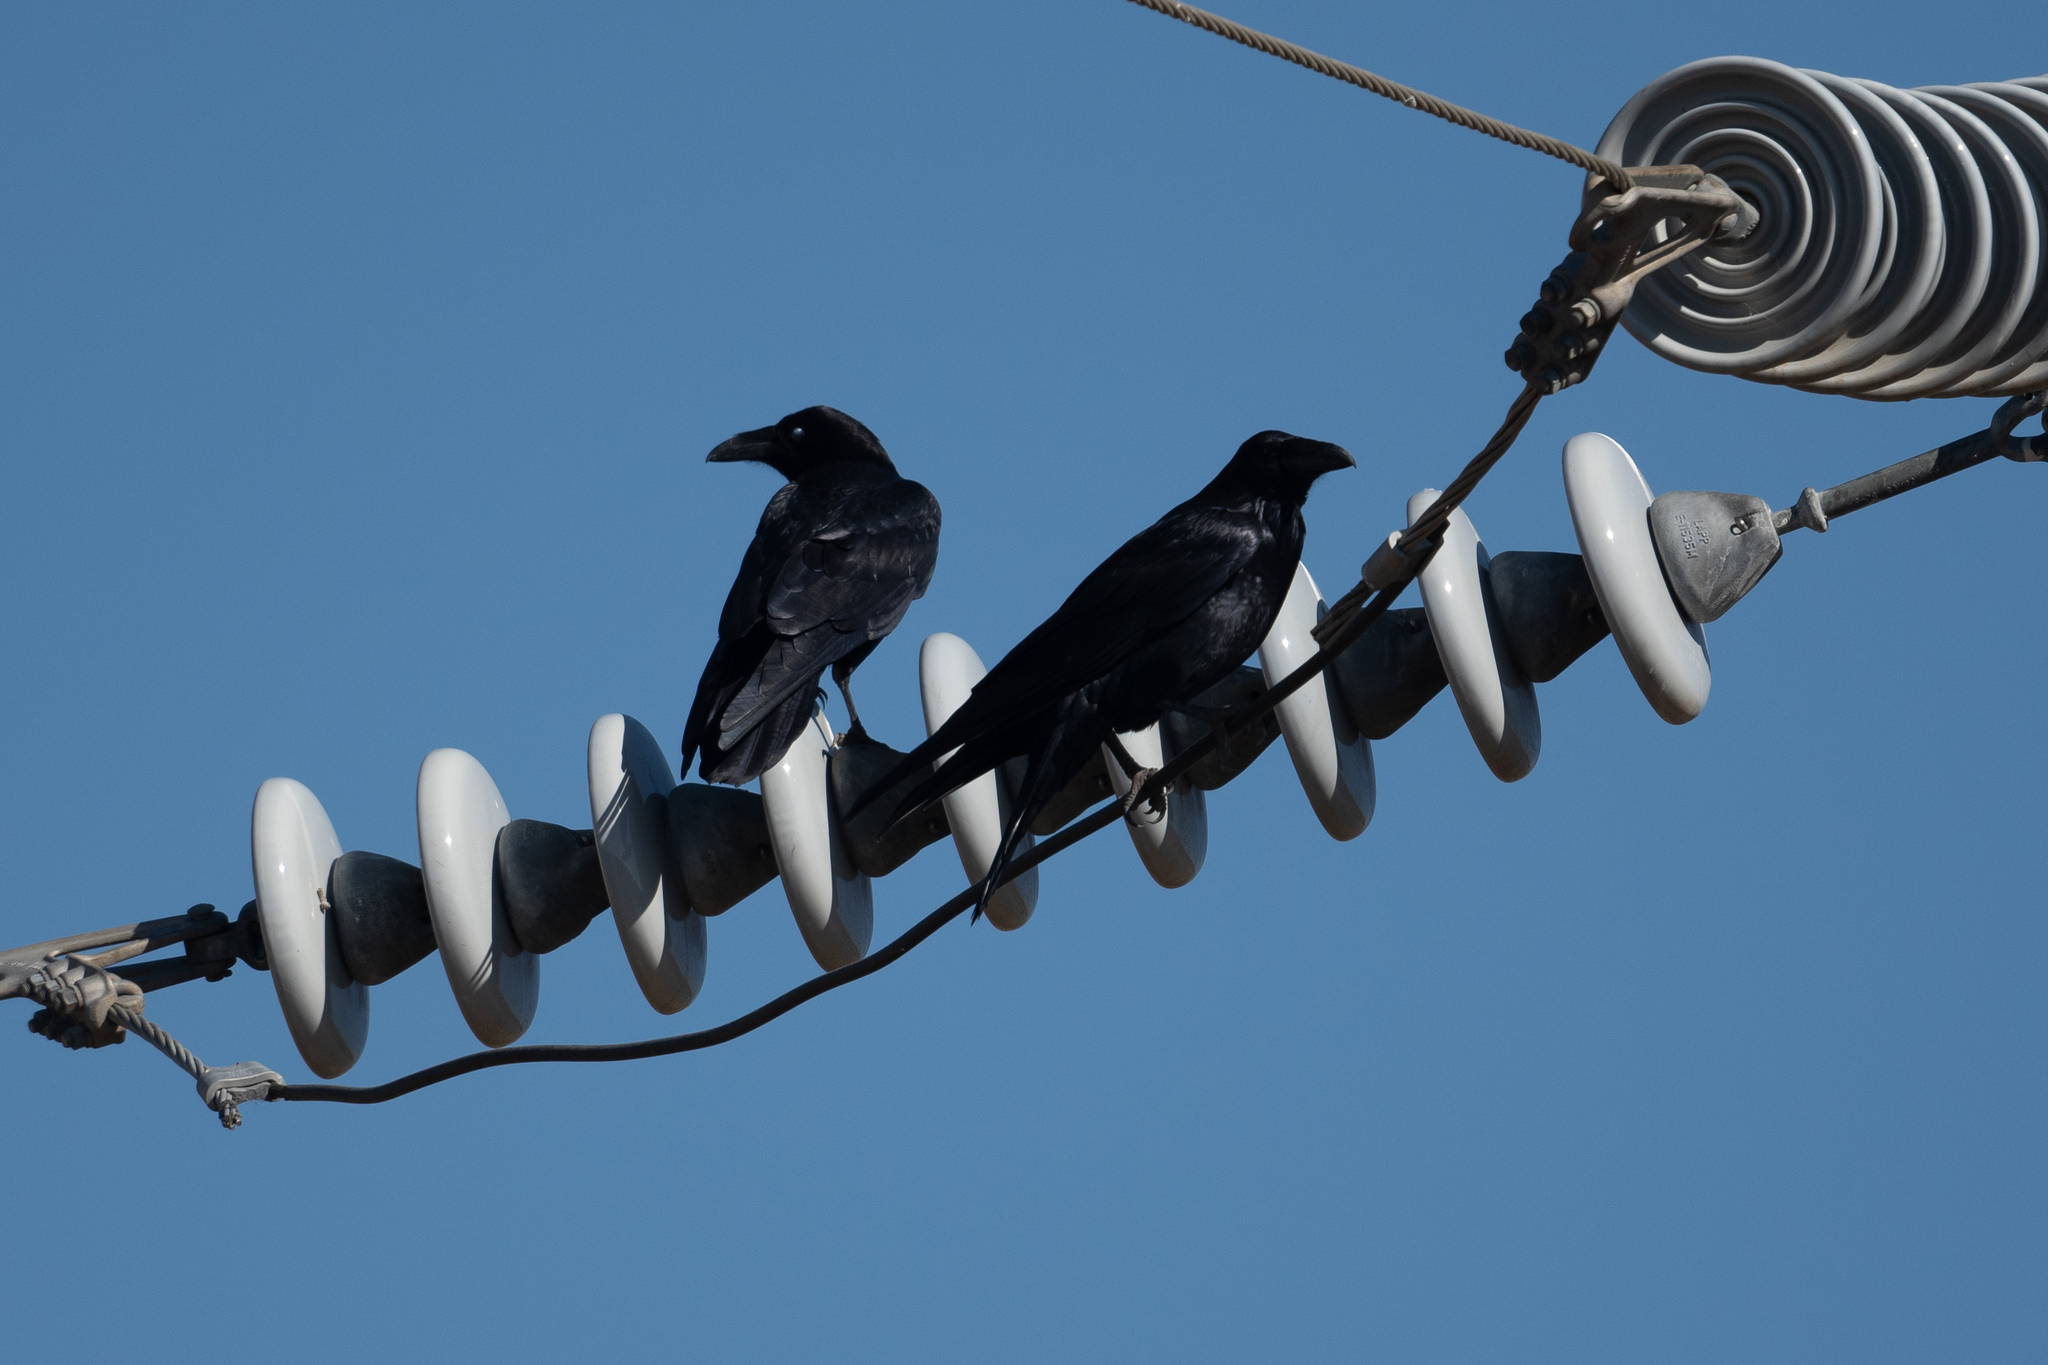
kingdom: Animalia
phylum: Chordata
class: Aves
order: Passeriformes
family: Corvidae
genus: Corvus
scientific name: Corvus corax
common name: Common raven
